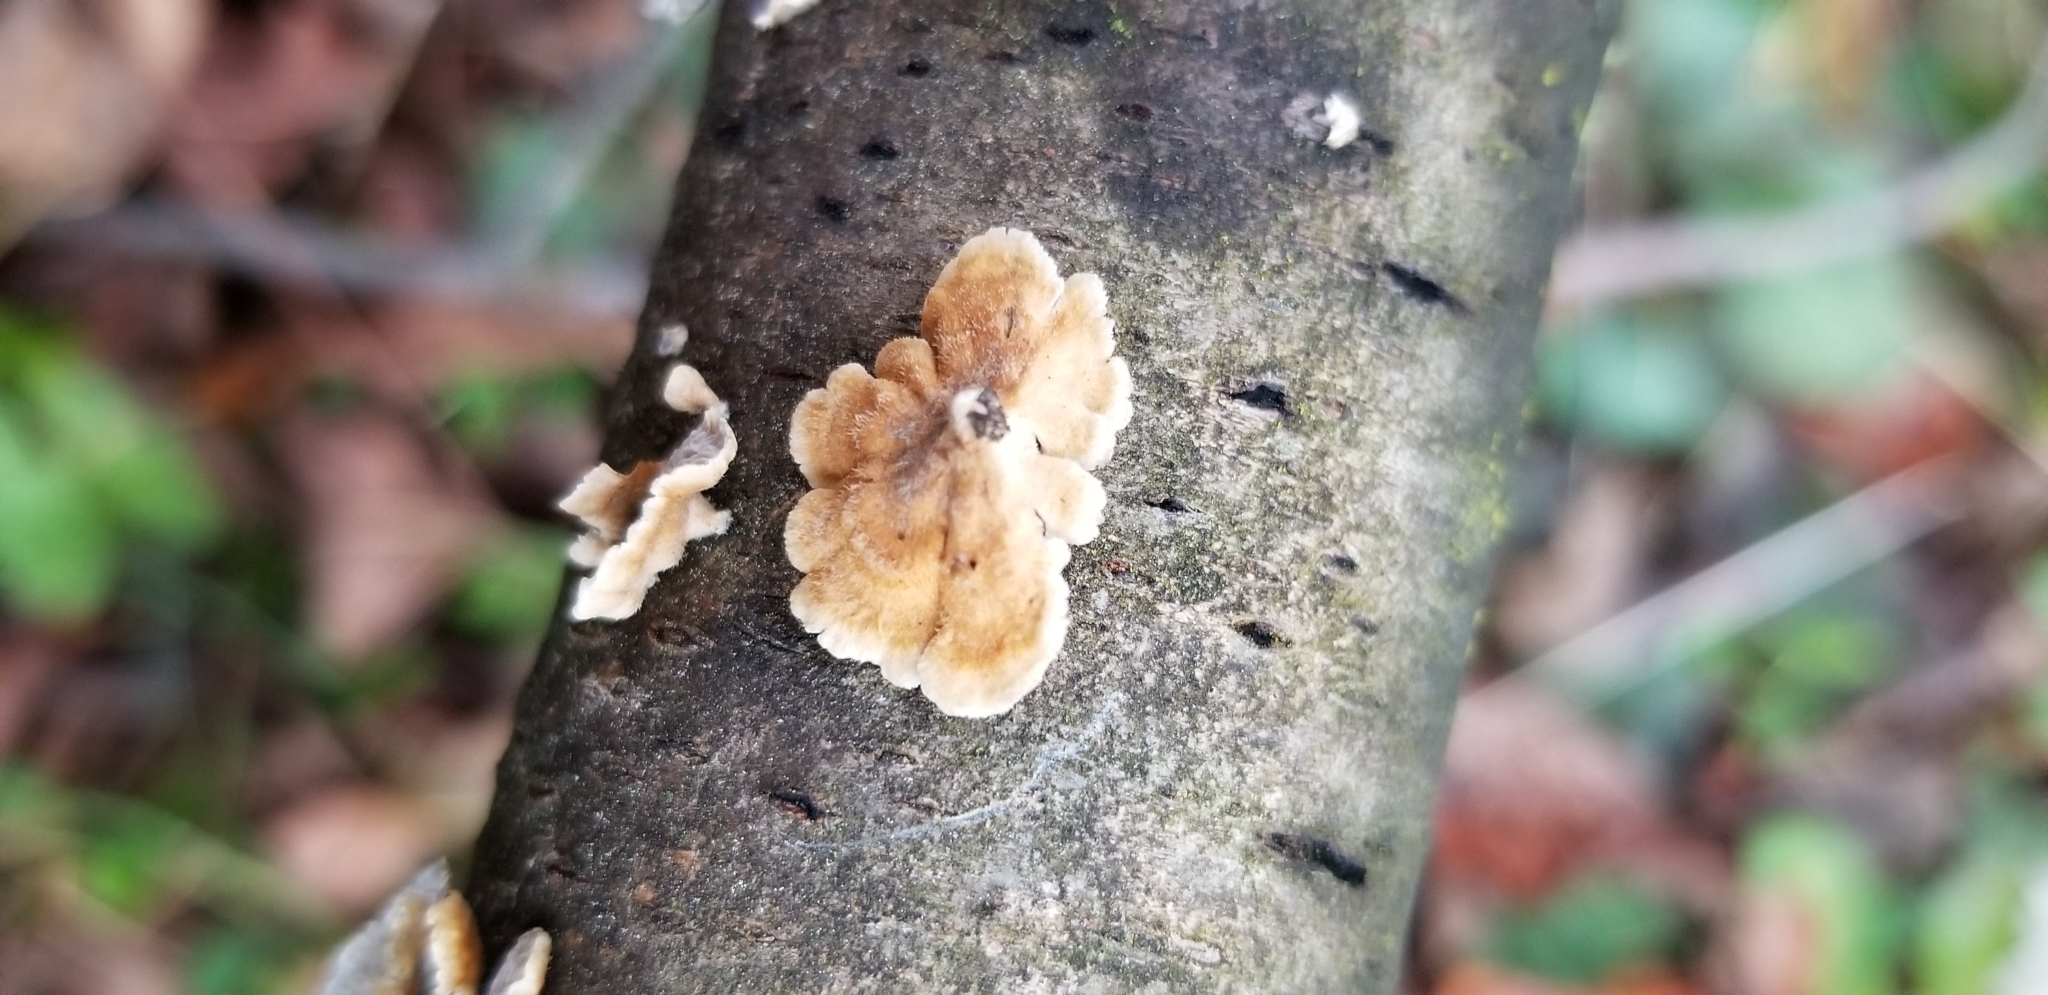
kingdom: Fungi
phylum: Basidiomycota
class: Agaricomycetes
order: Amylocorticiales
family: Amylocorticiaceae
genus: Plicaturopsis
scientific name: Plicaturopsis crispa
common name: Crimped gill
